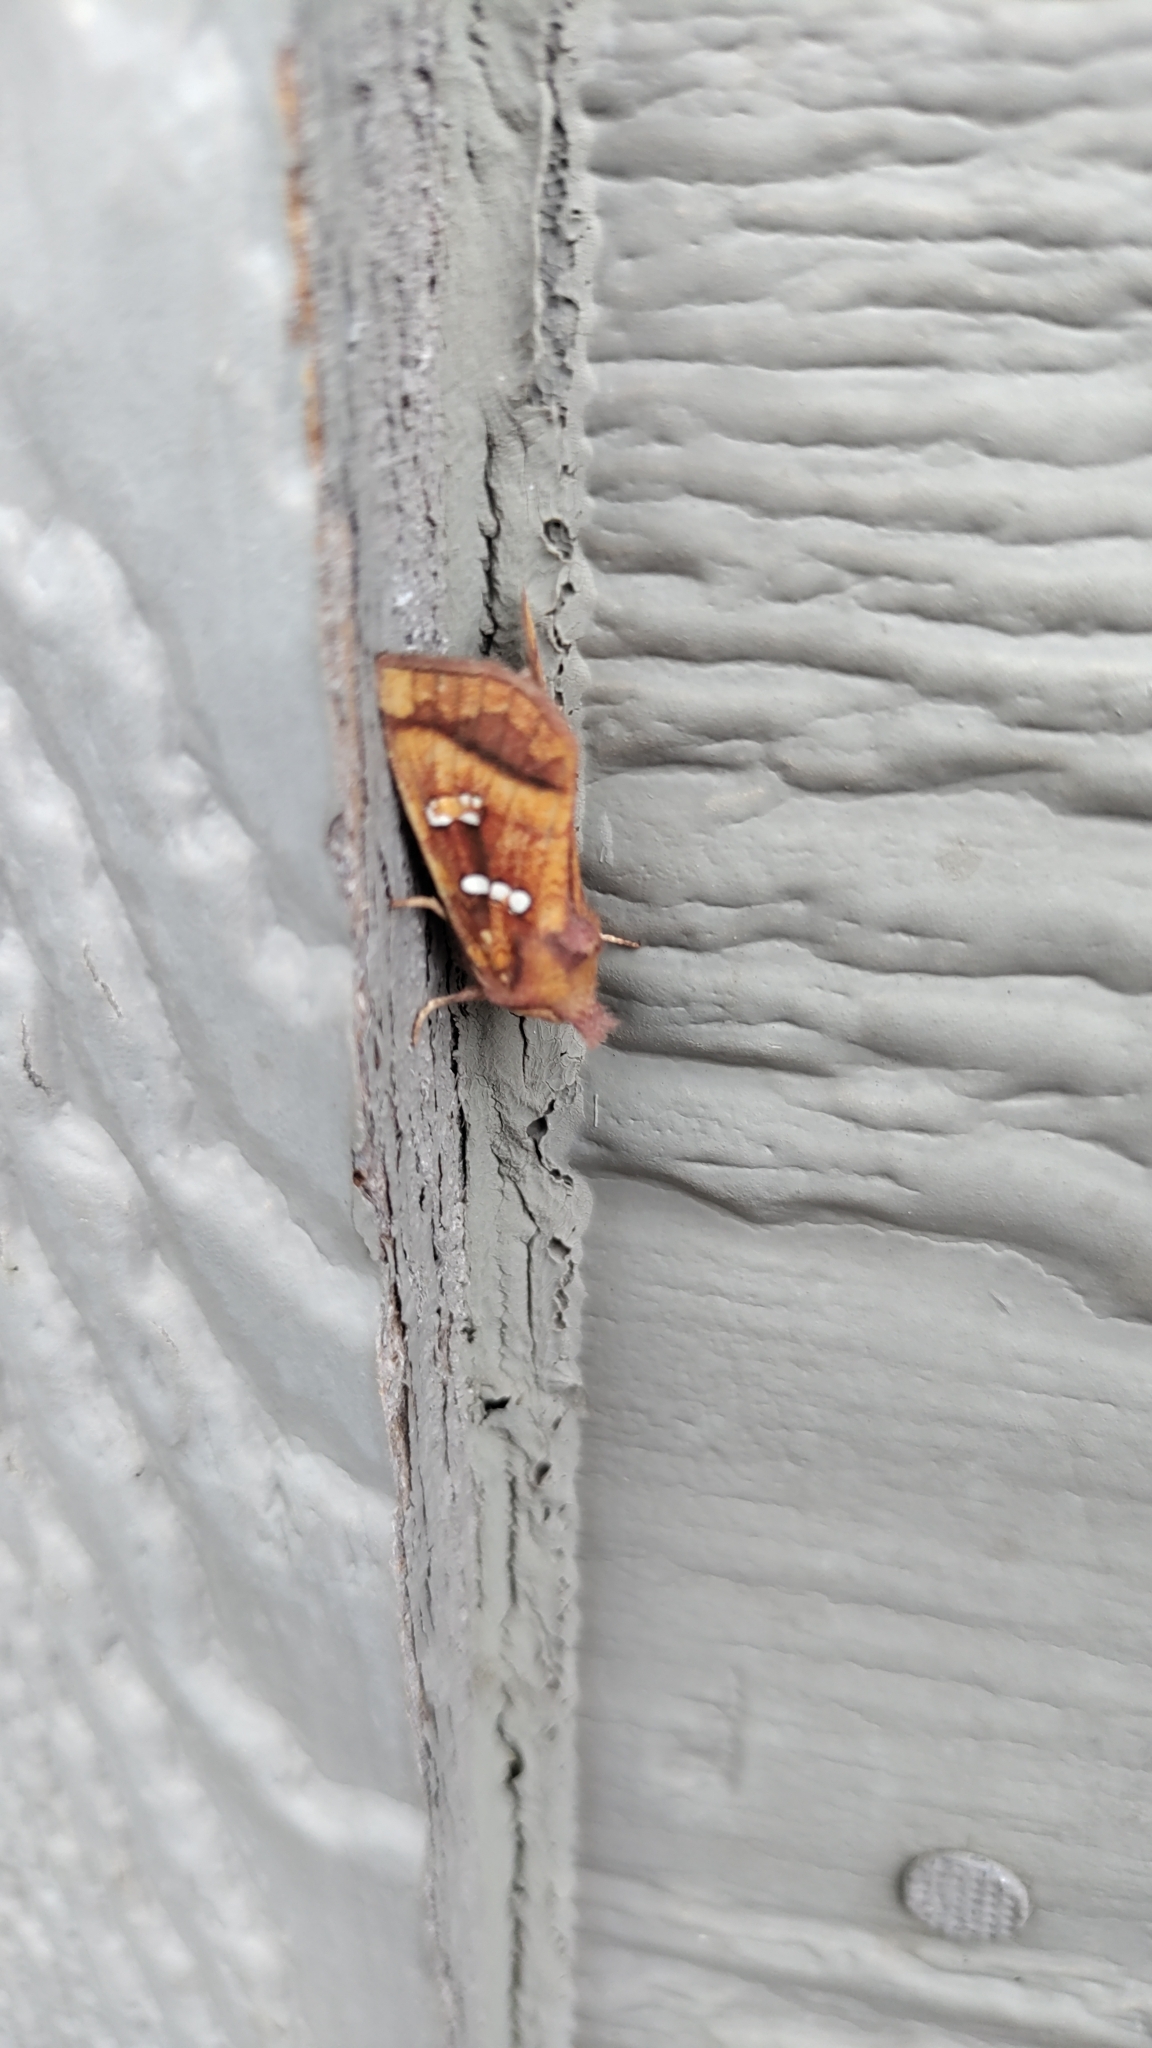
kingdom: Animalia
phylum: Arthropoda
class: Insecta
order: Lepidoptera
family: Noctuidae
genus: Papaipema
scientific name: Papaipema pterisii
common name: Bracken borer moth
